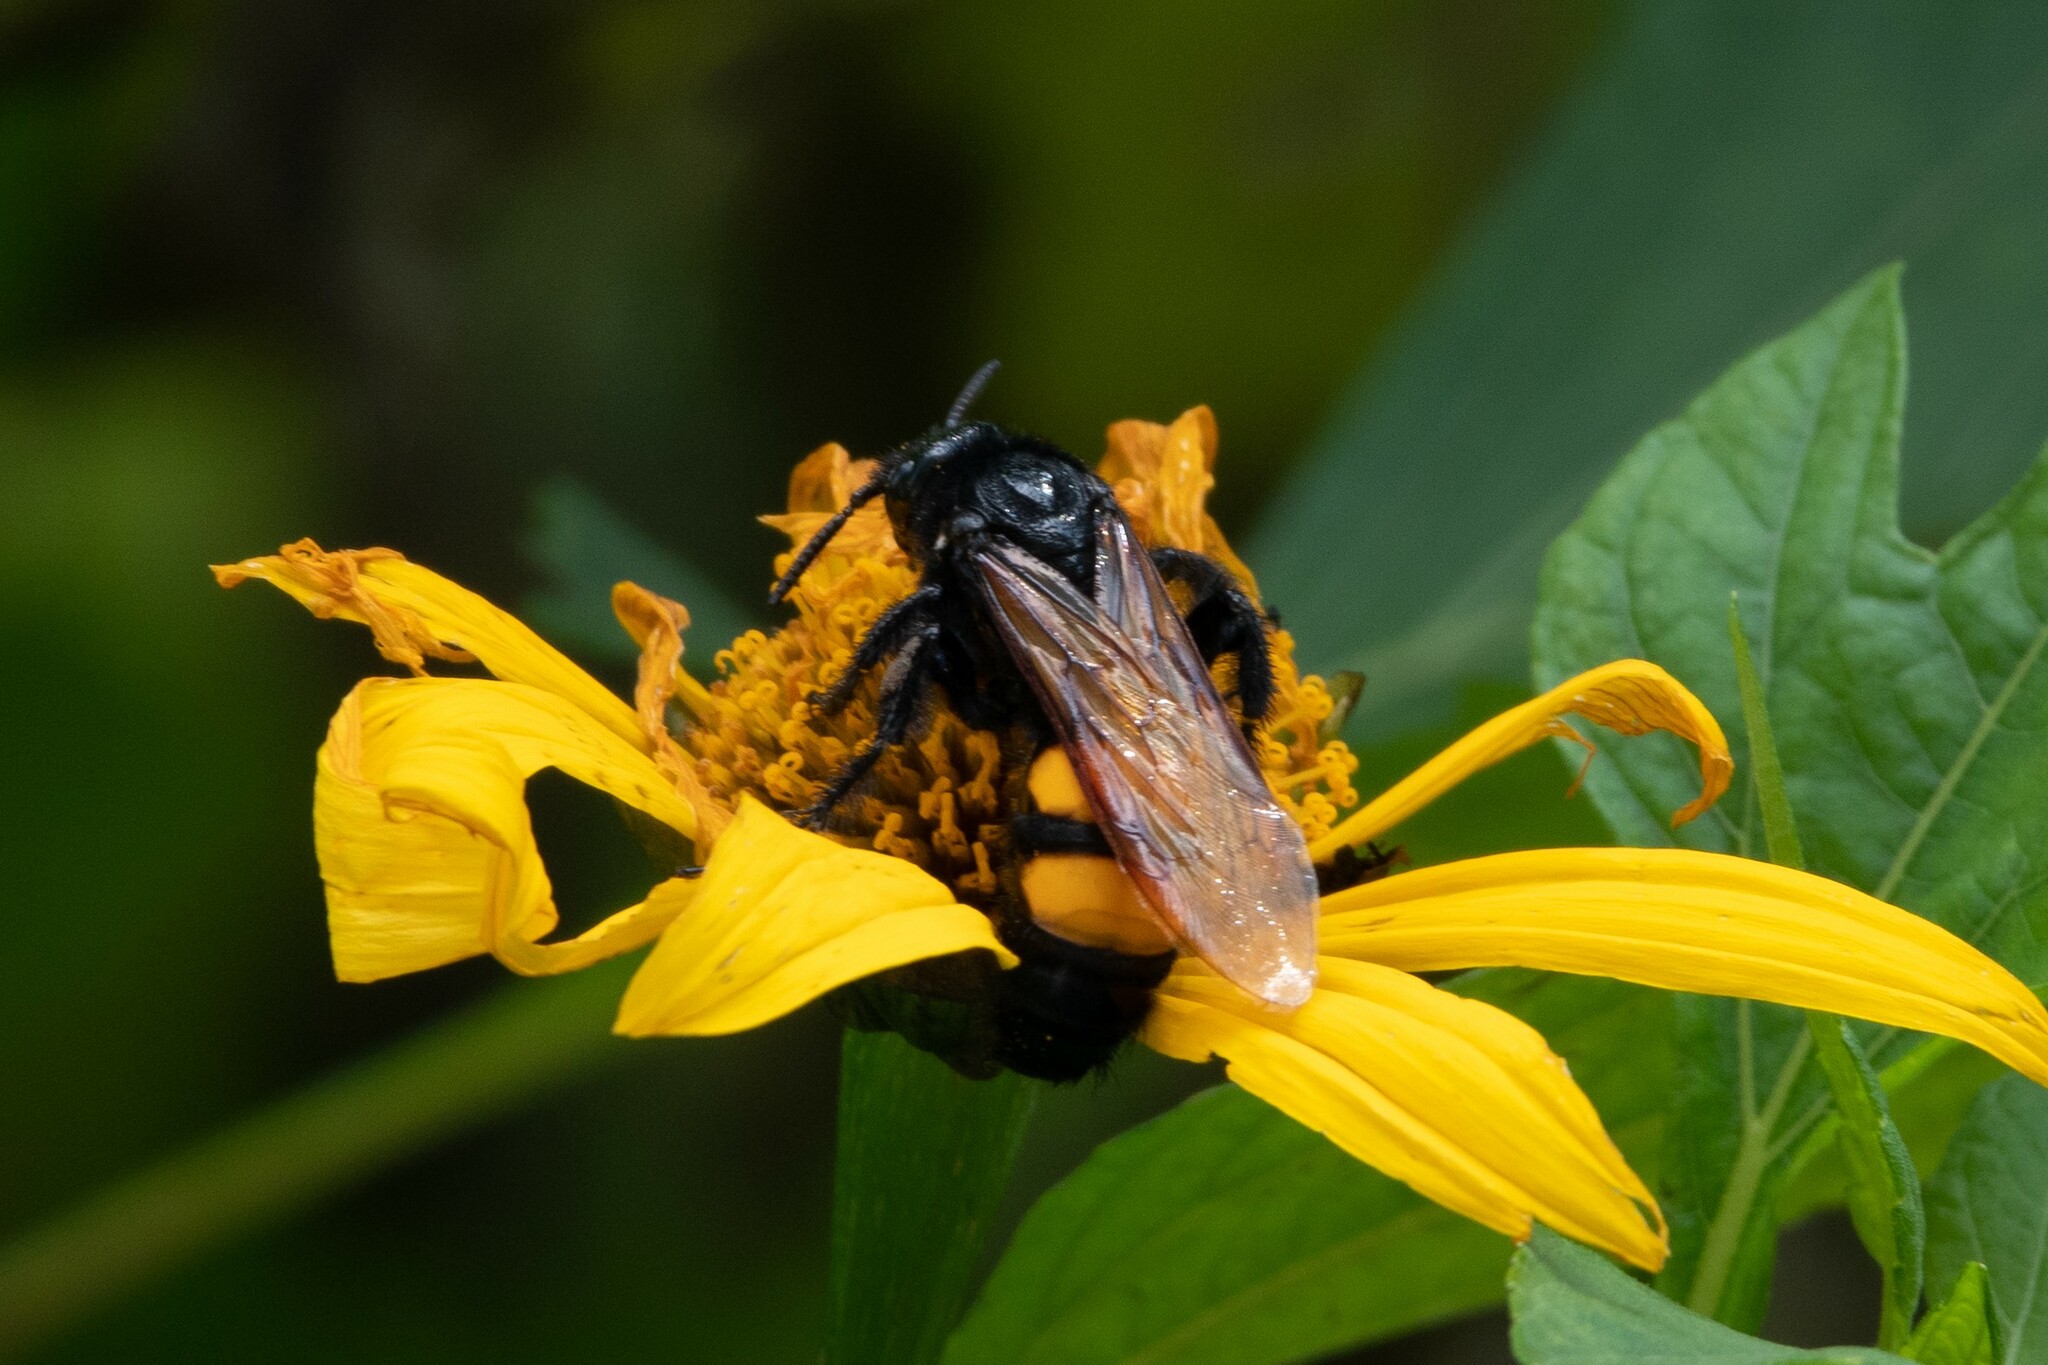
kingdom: Animalia
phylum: Arthropoda
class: Insecta
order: Hymenoptera
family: Scoliidae
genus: Pygodasis
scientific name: Pygodasis ephippium
